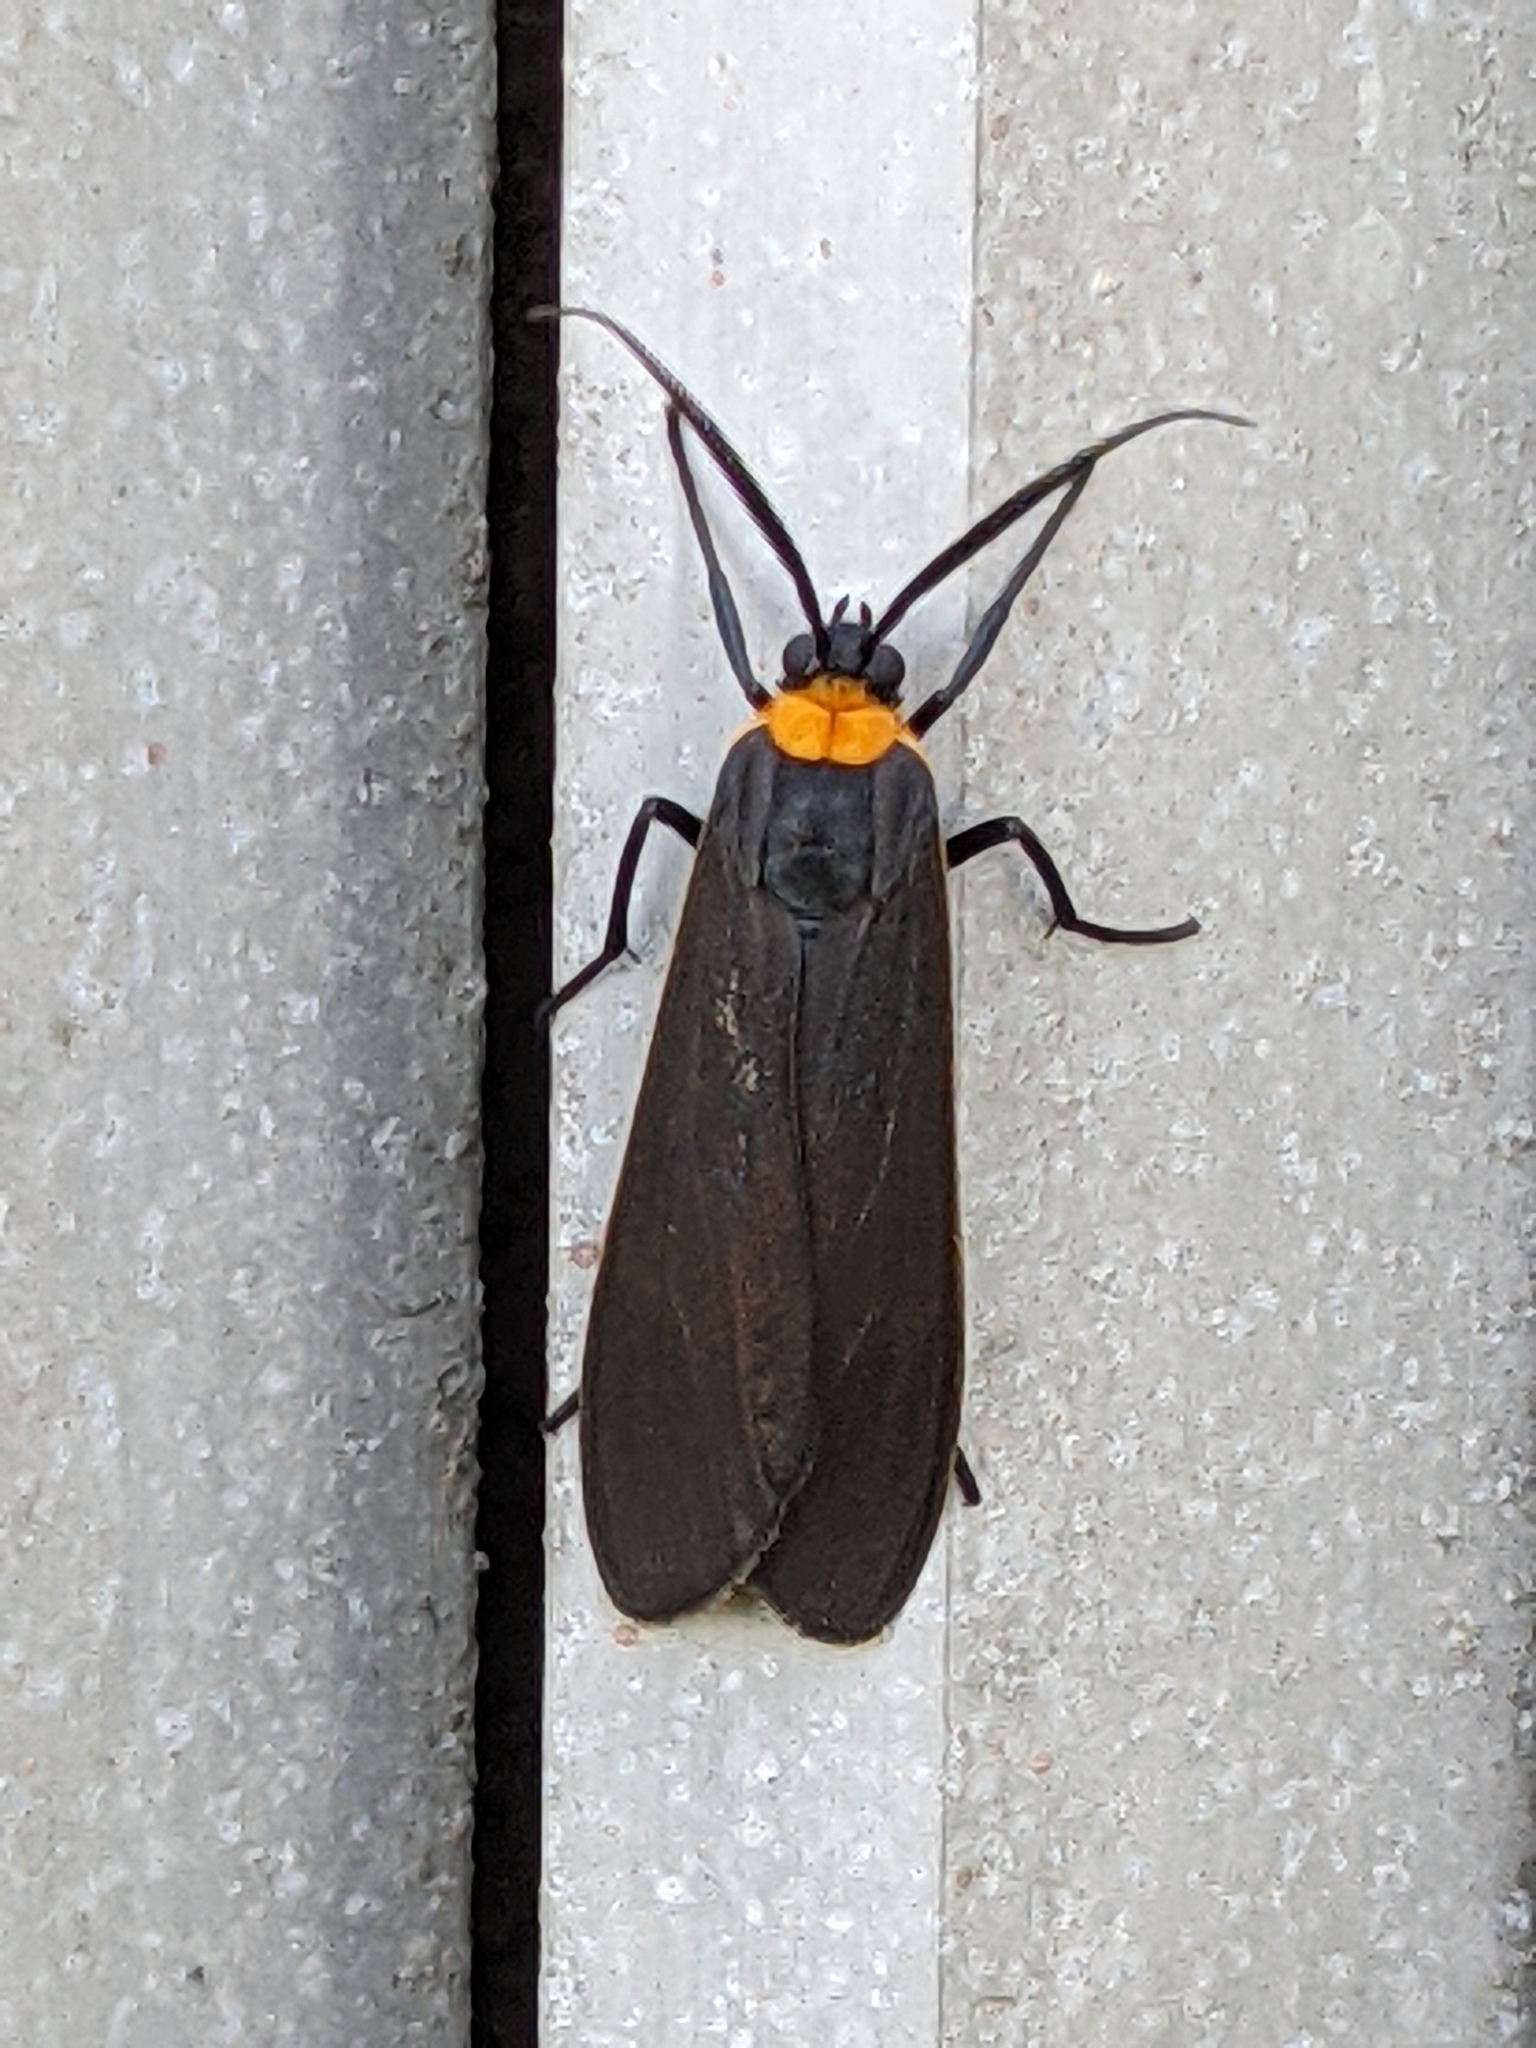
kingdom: Animalia
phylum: Arthropoda
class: Insecta
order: Lepidoptera
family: Erebidae
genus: Cisseps
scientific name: Cisseps fulvicollis
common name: Yellow-collared scape moth
